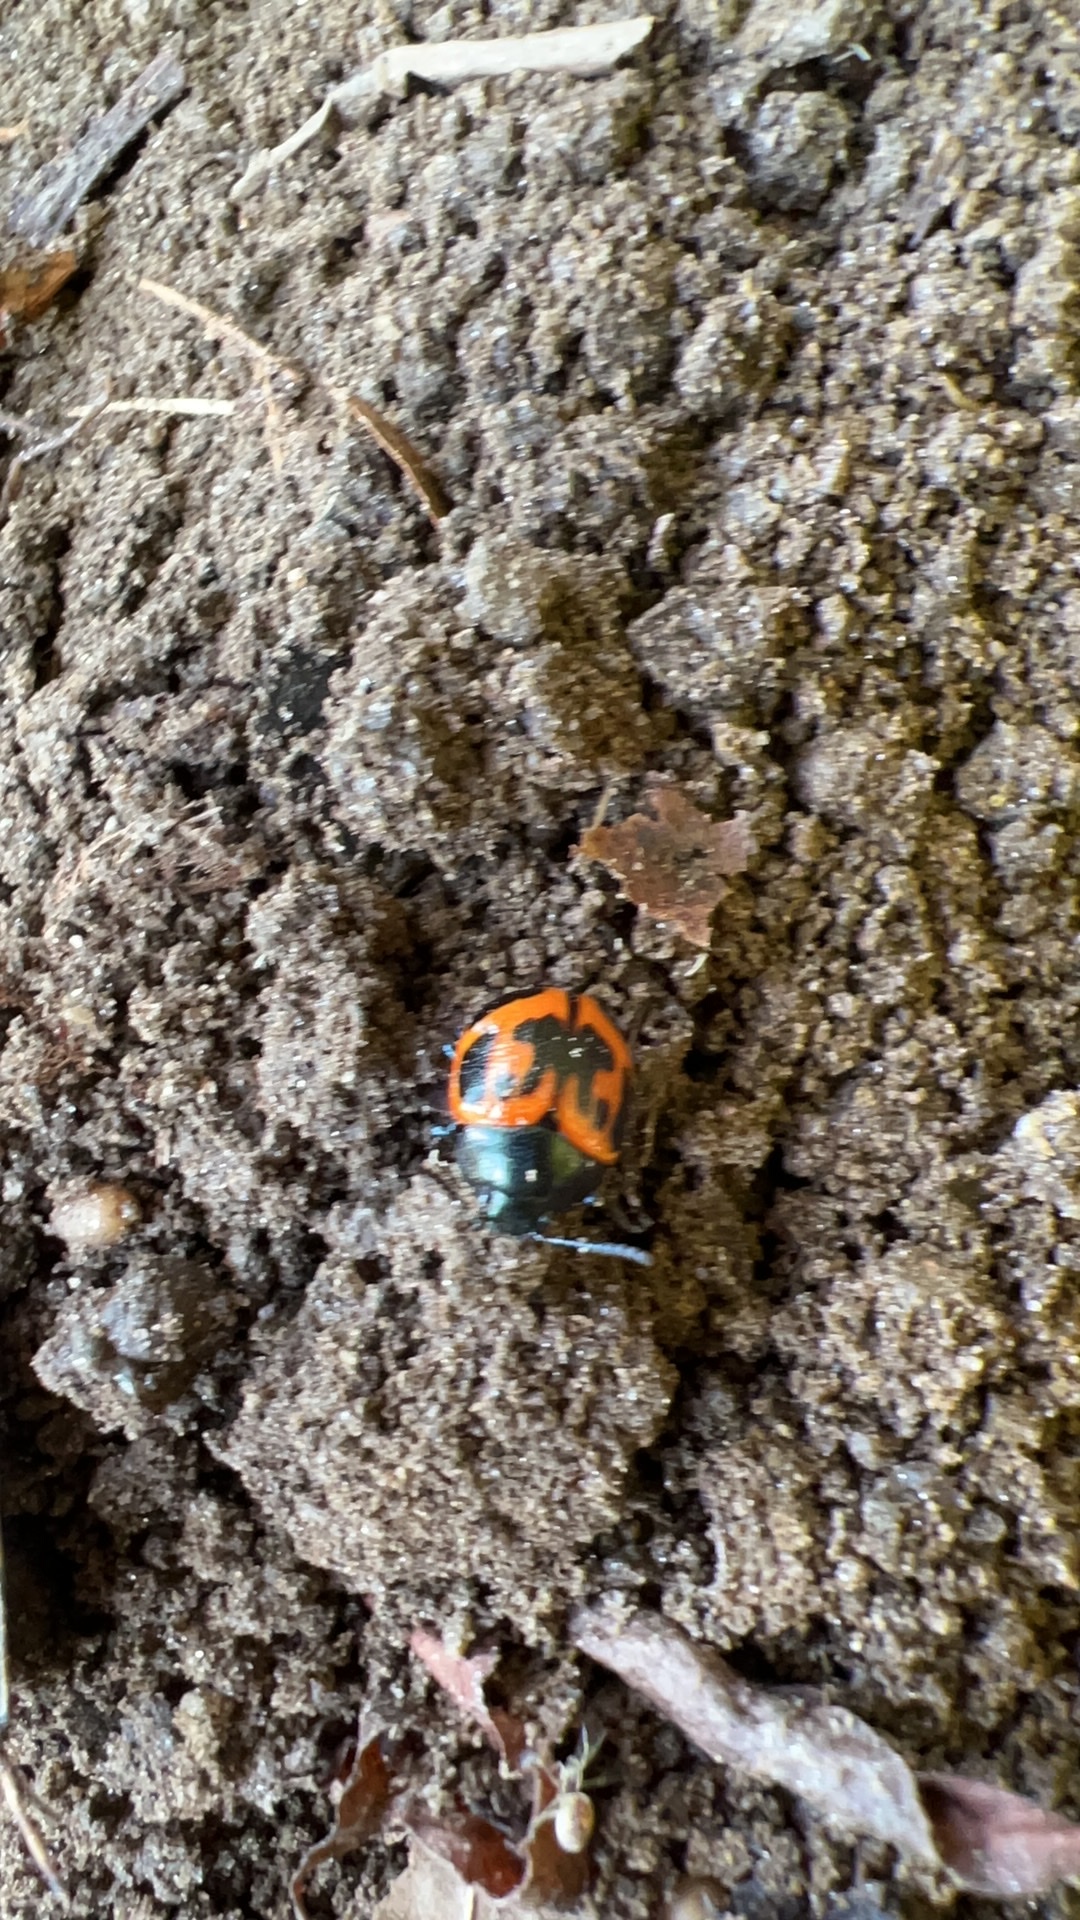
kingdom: Animalia
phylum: Arthropoda
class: Insecta
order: Coleoptera
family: Chrysomelidae
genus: Labidomera
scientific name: Labidomera clivicollis
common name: Swamp milkweed leaf beetle
